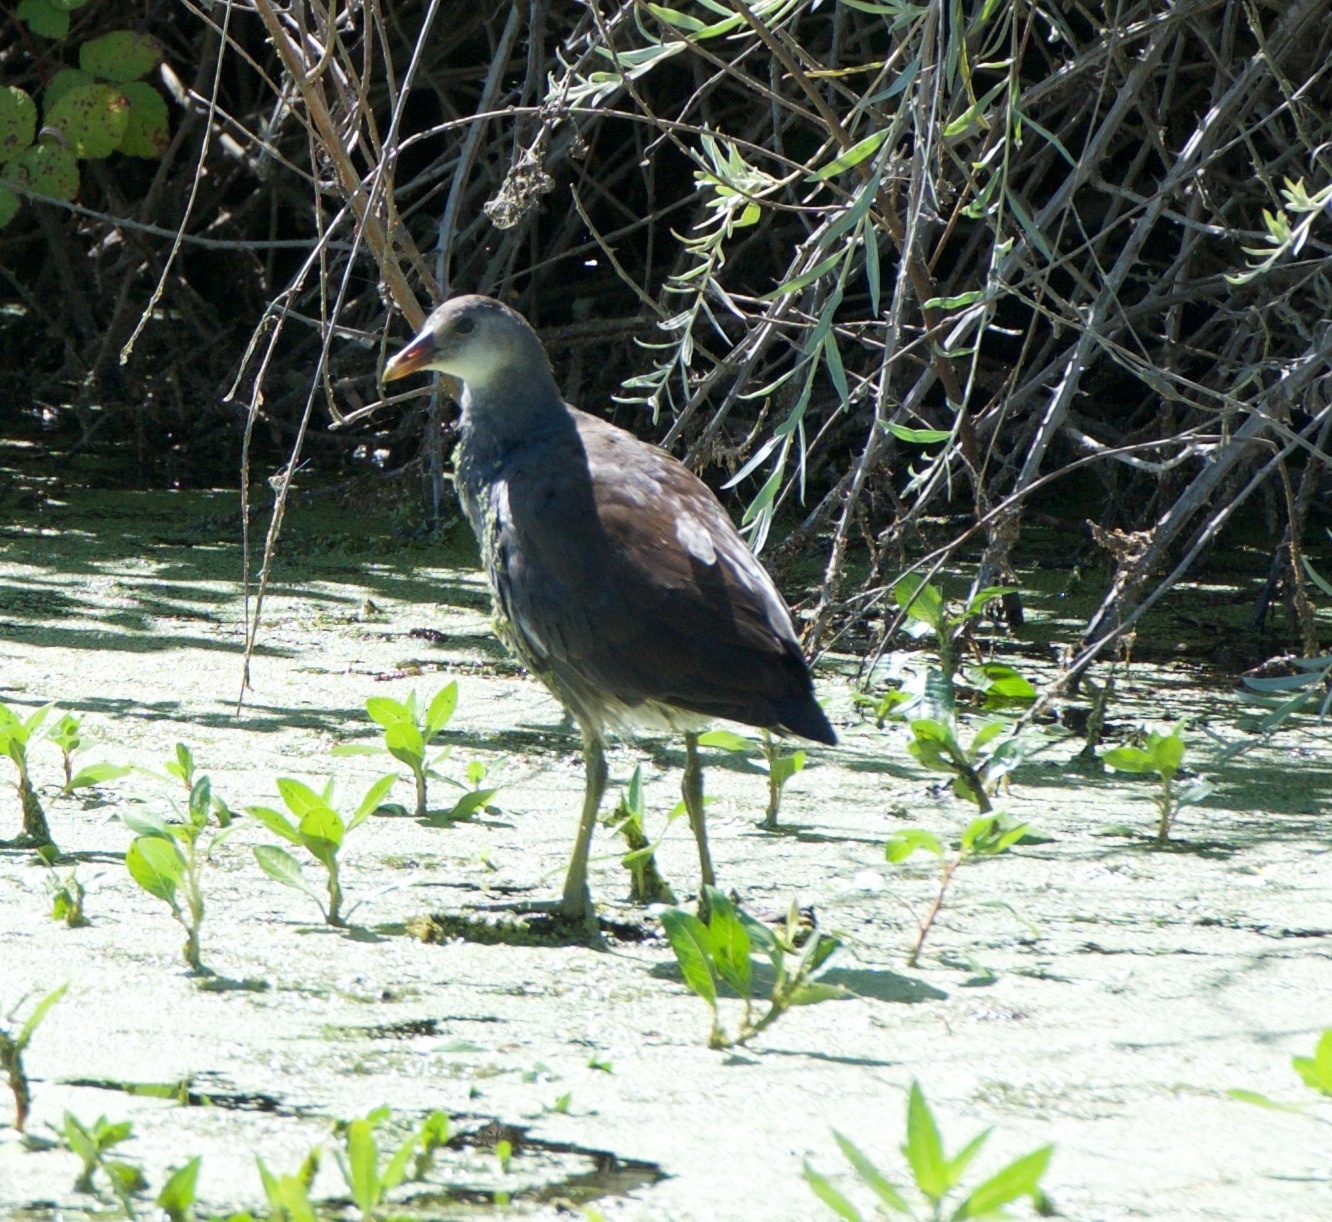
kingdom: Animalia
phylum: Chordata
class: Aves
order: Gruiformes
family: Rallidae
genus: Gallinula
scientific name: Gallinula chloropus
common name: Common moorhen
